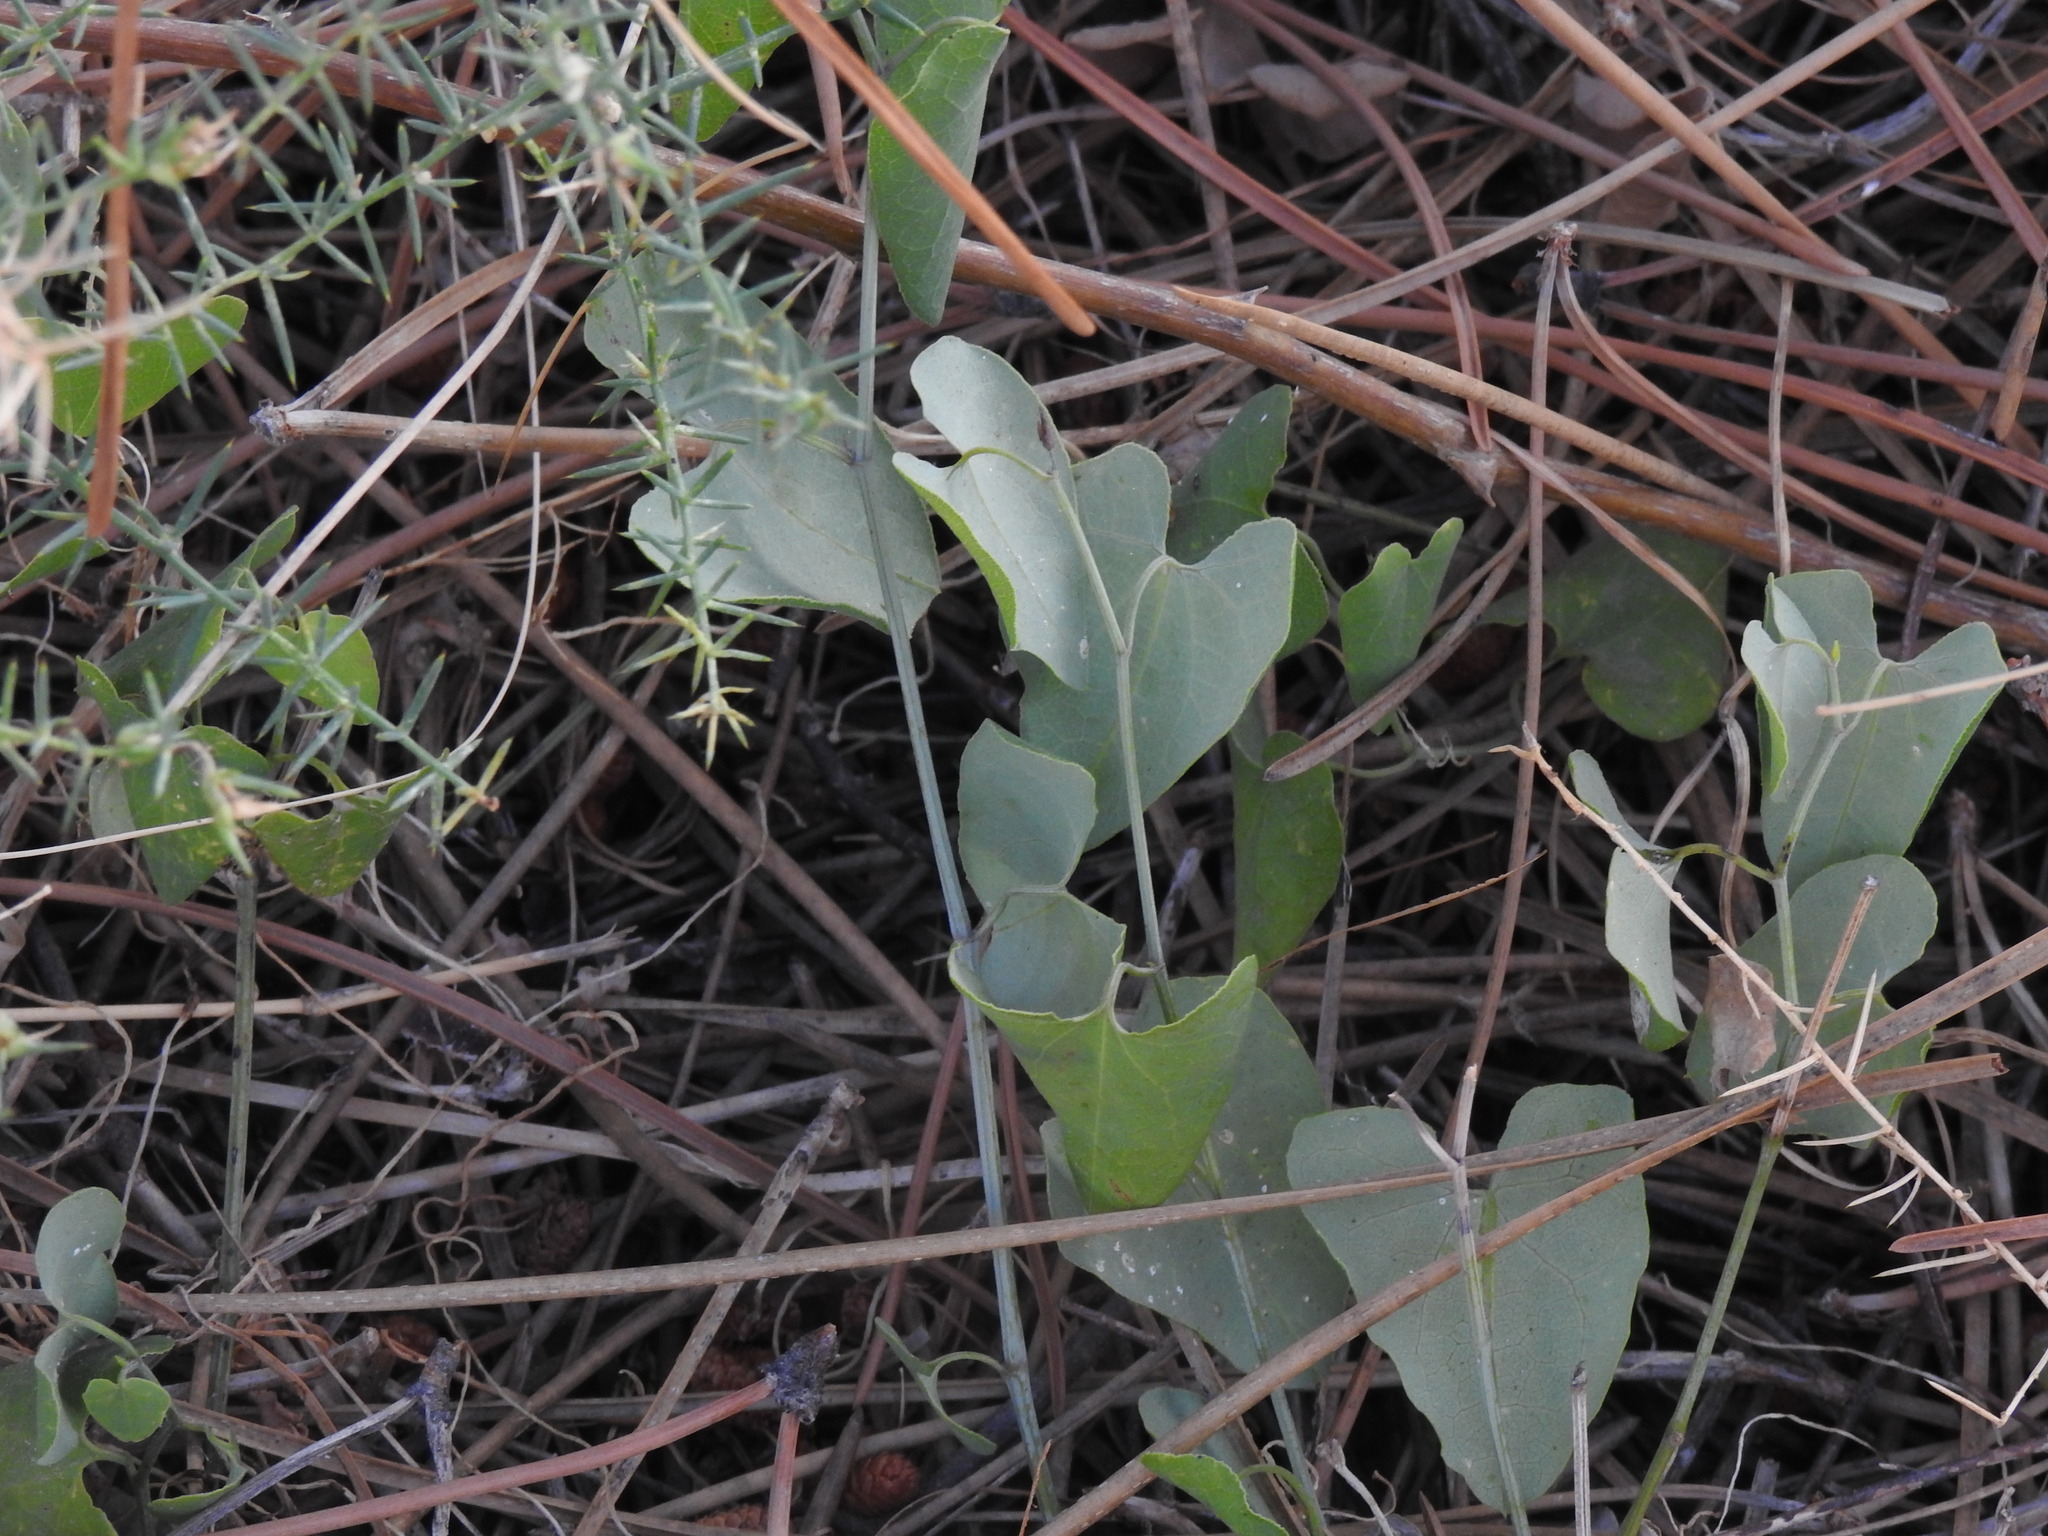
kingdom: Plantae
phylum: Tracheophyta
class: Magnoliopsida
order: Piperales
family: Aristolochiaceae
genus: Aristolochia
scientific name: Aristolochia baetica
